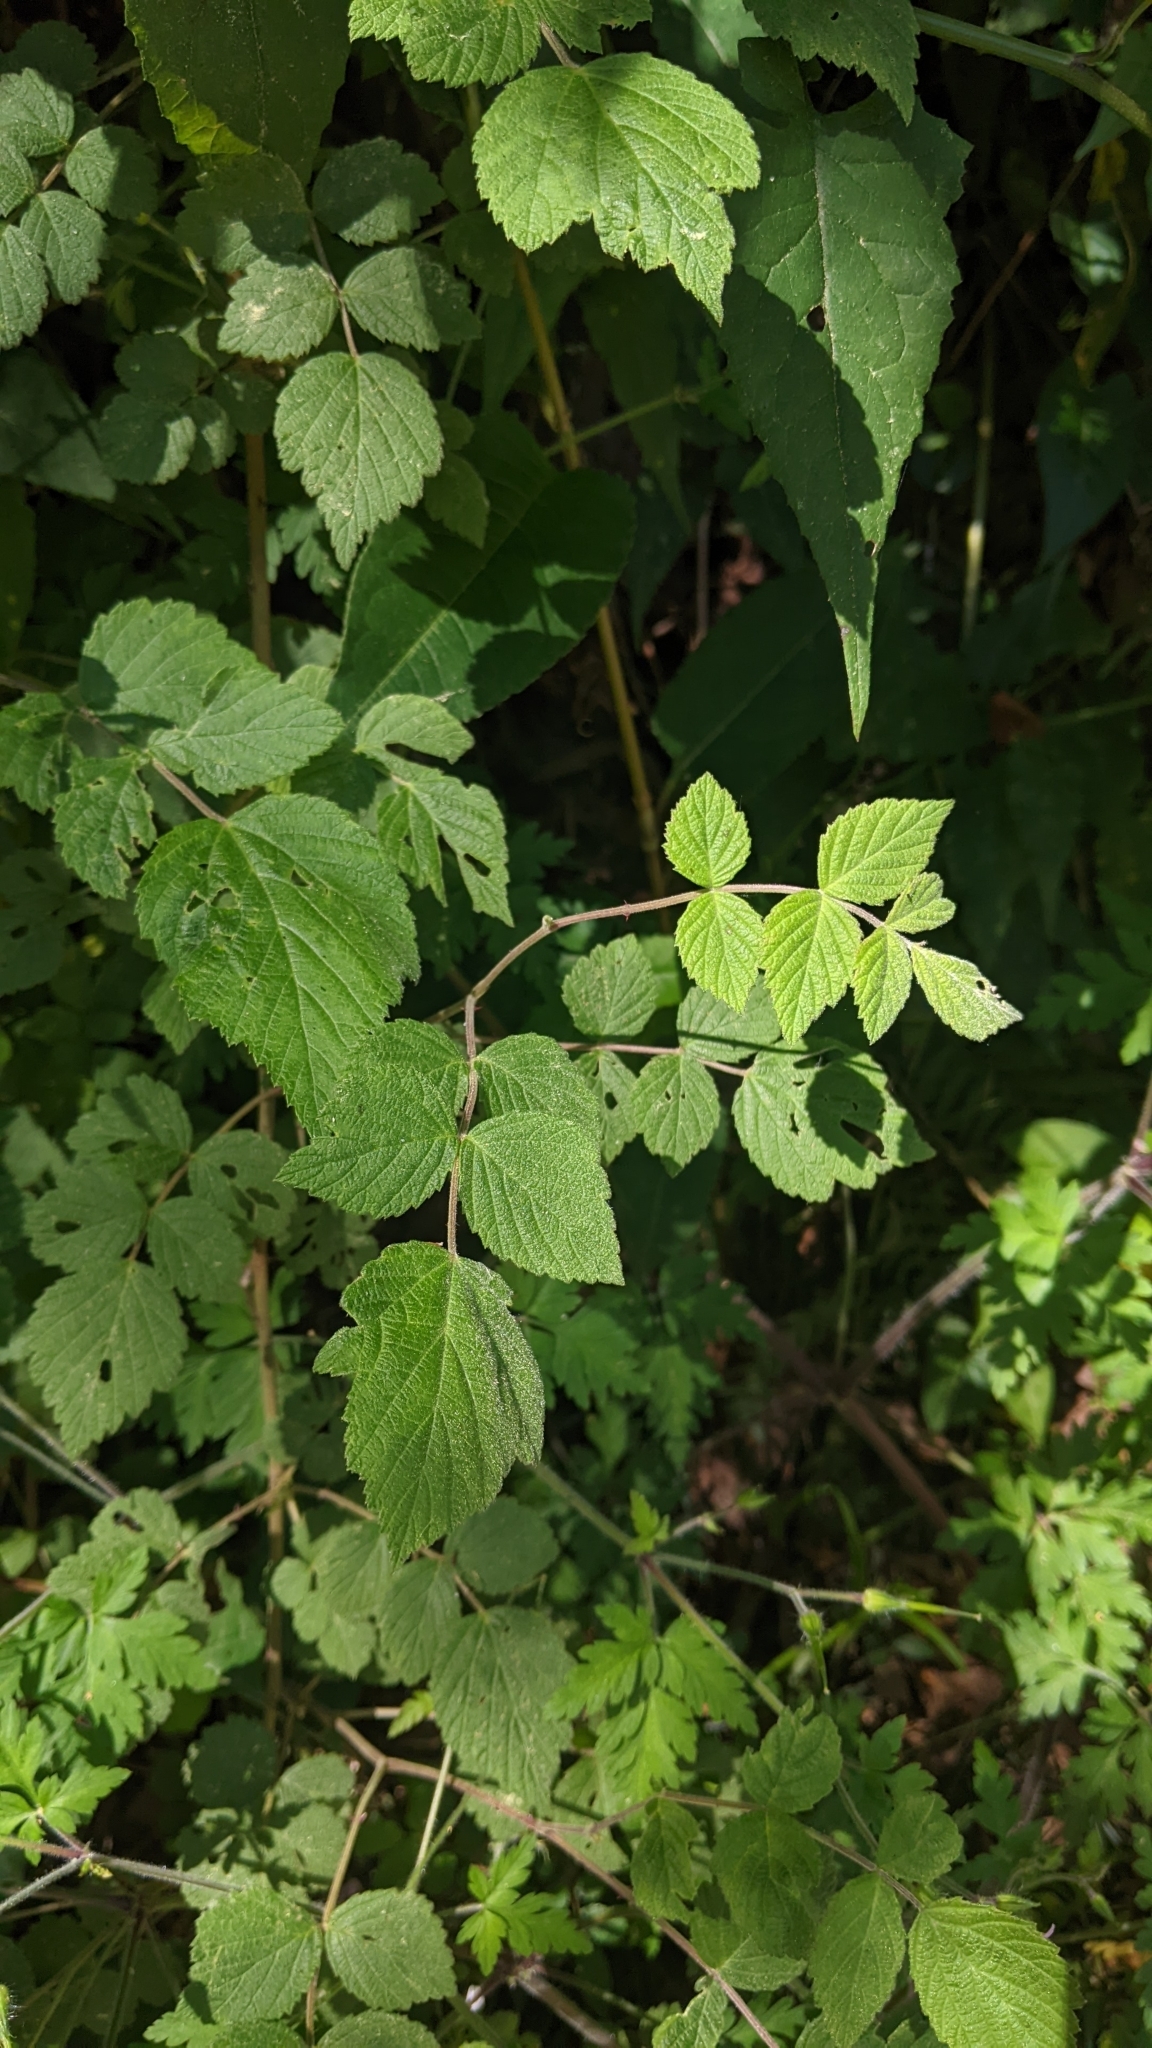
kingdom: Plantae
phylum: Tracheophyta
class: Magnoliopsida
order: Rosales
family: Rosaceae
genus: Rubus
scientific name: Rubus niveus
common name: Snowpeaks raspberry
